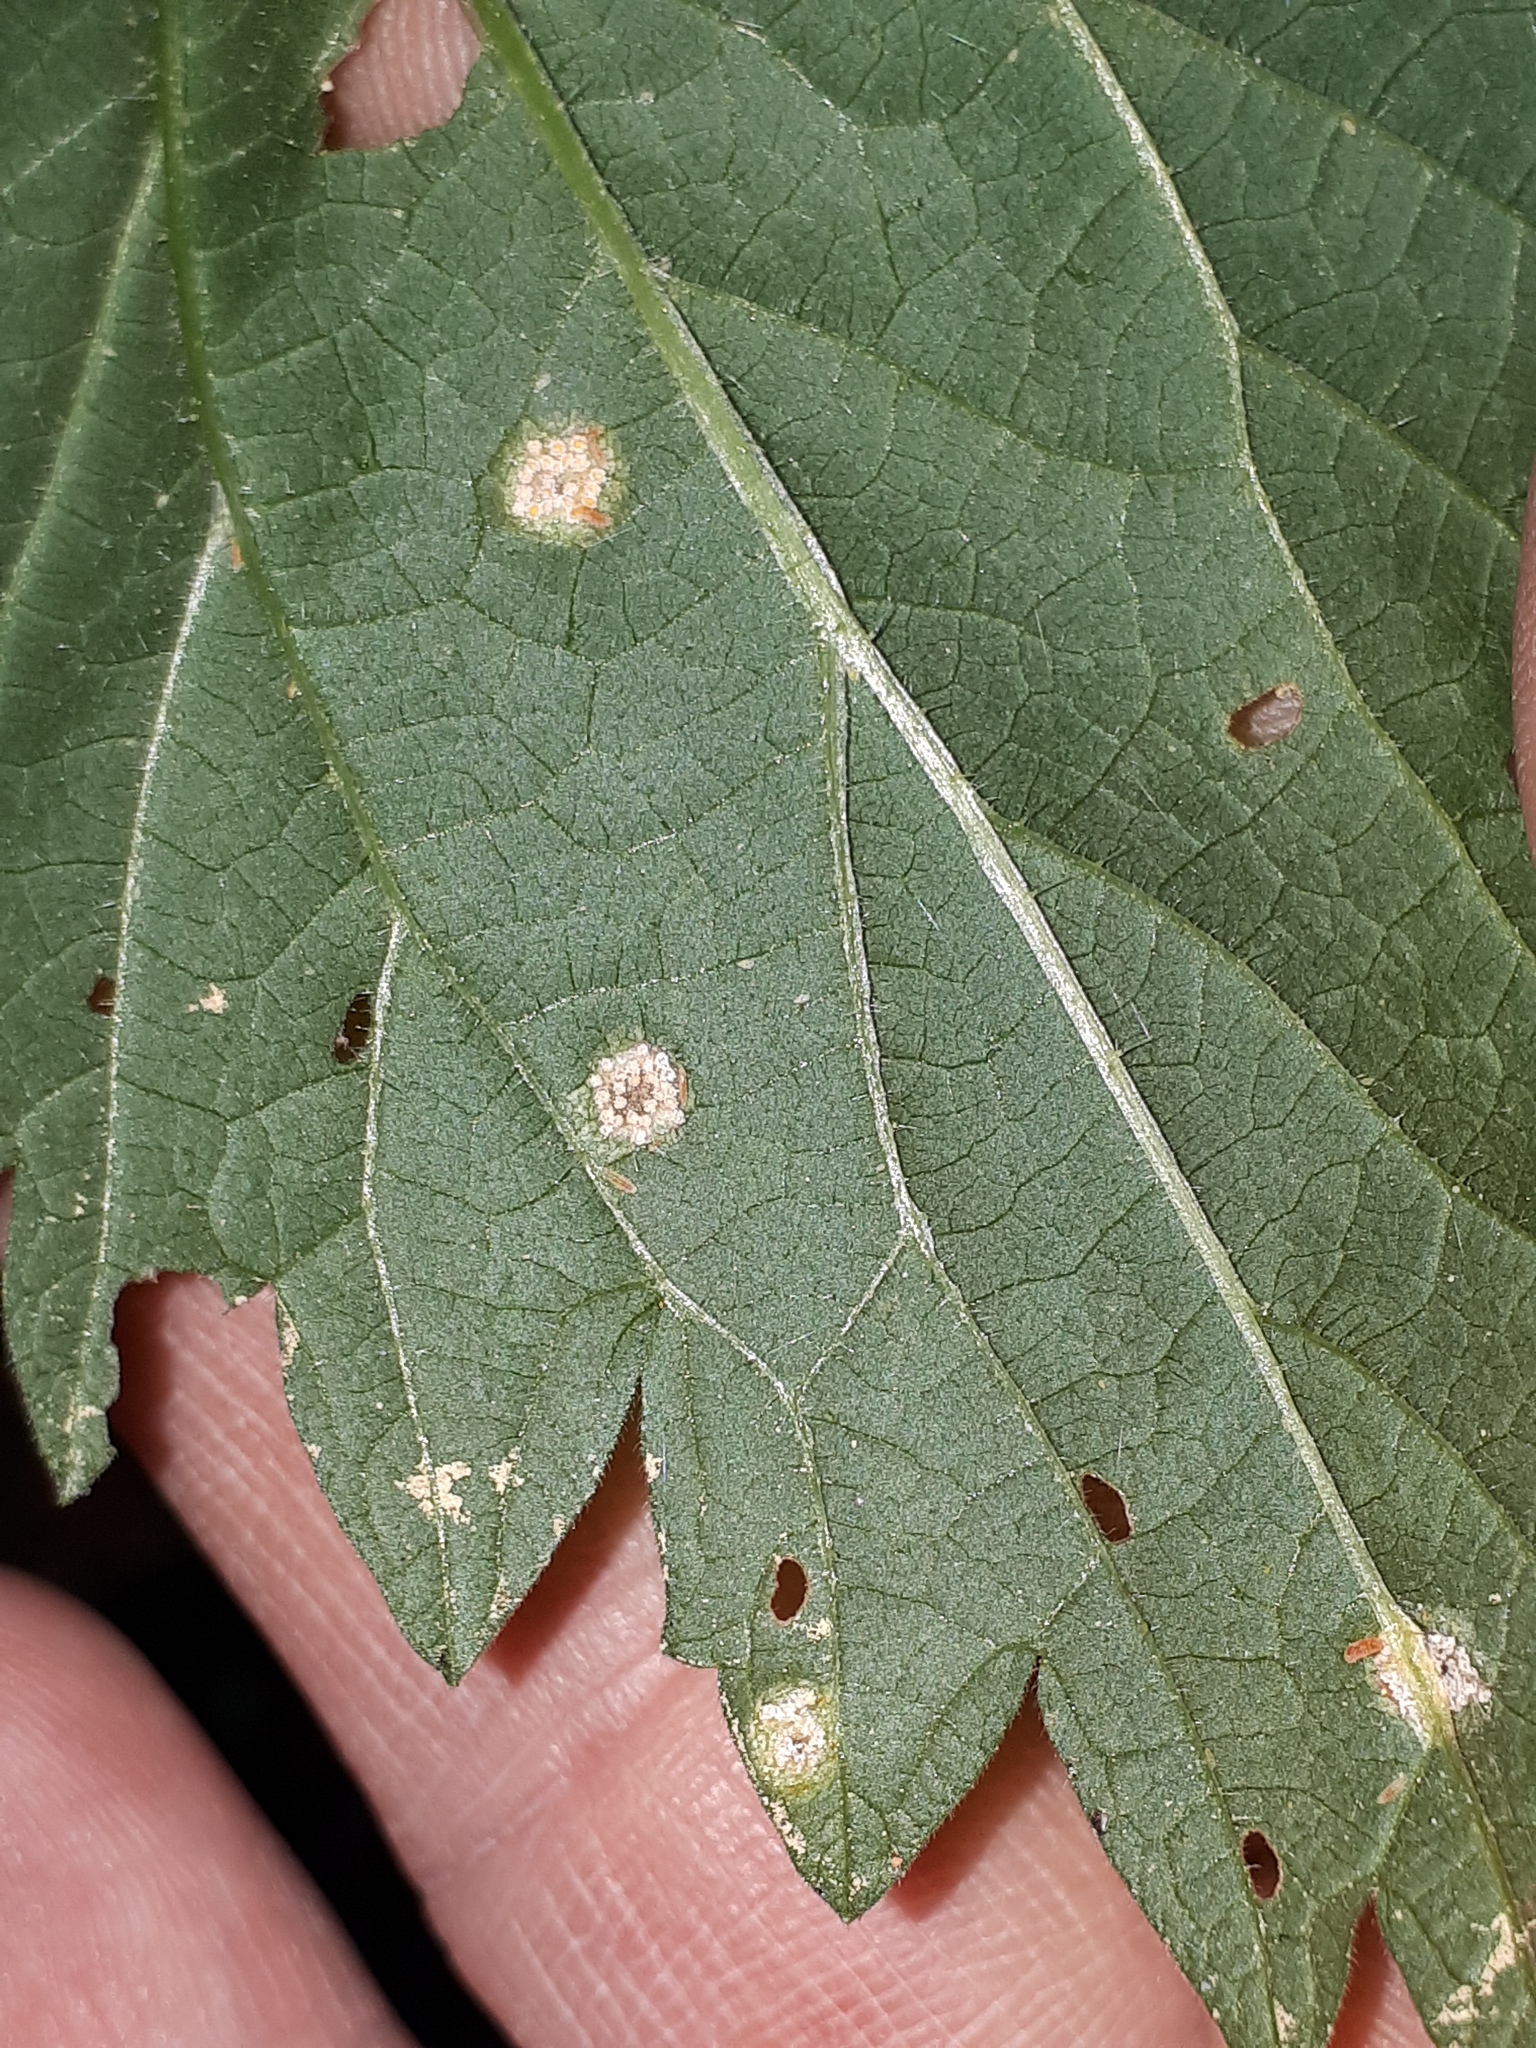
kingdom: Fungi
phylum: Basidiomycota
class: Pucciniomycetes
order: Pucciniales
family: Pucciniaceae
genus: Puccinia
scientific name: Puccinia urticata
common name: Nettle clustercup rust fungus
